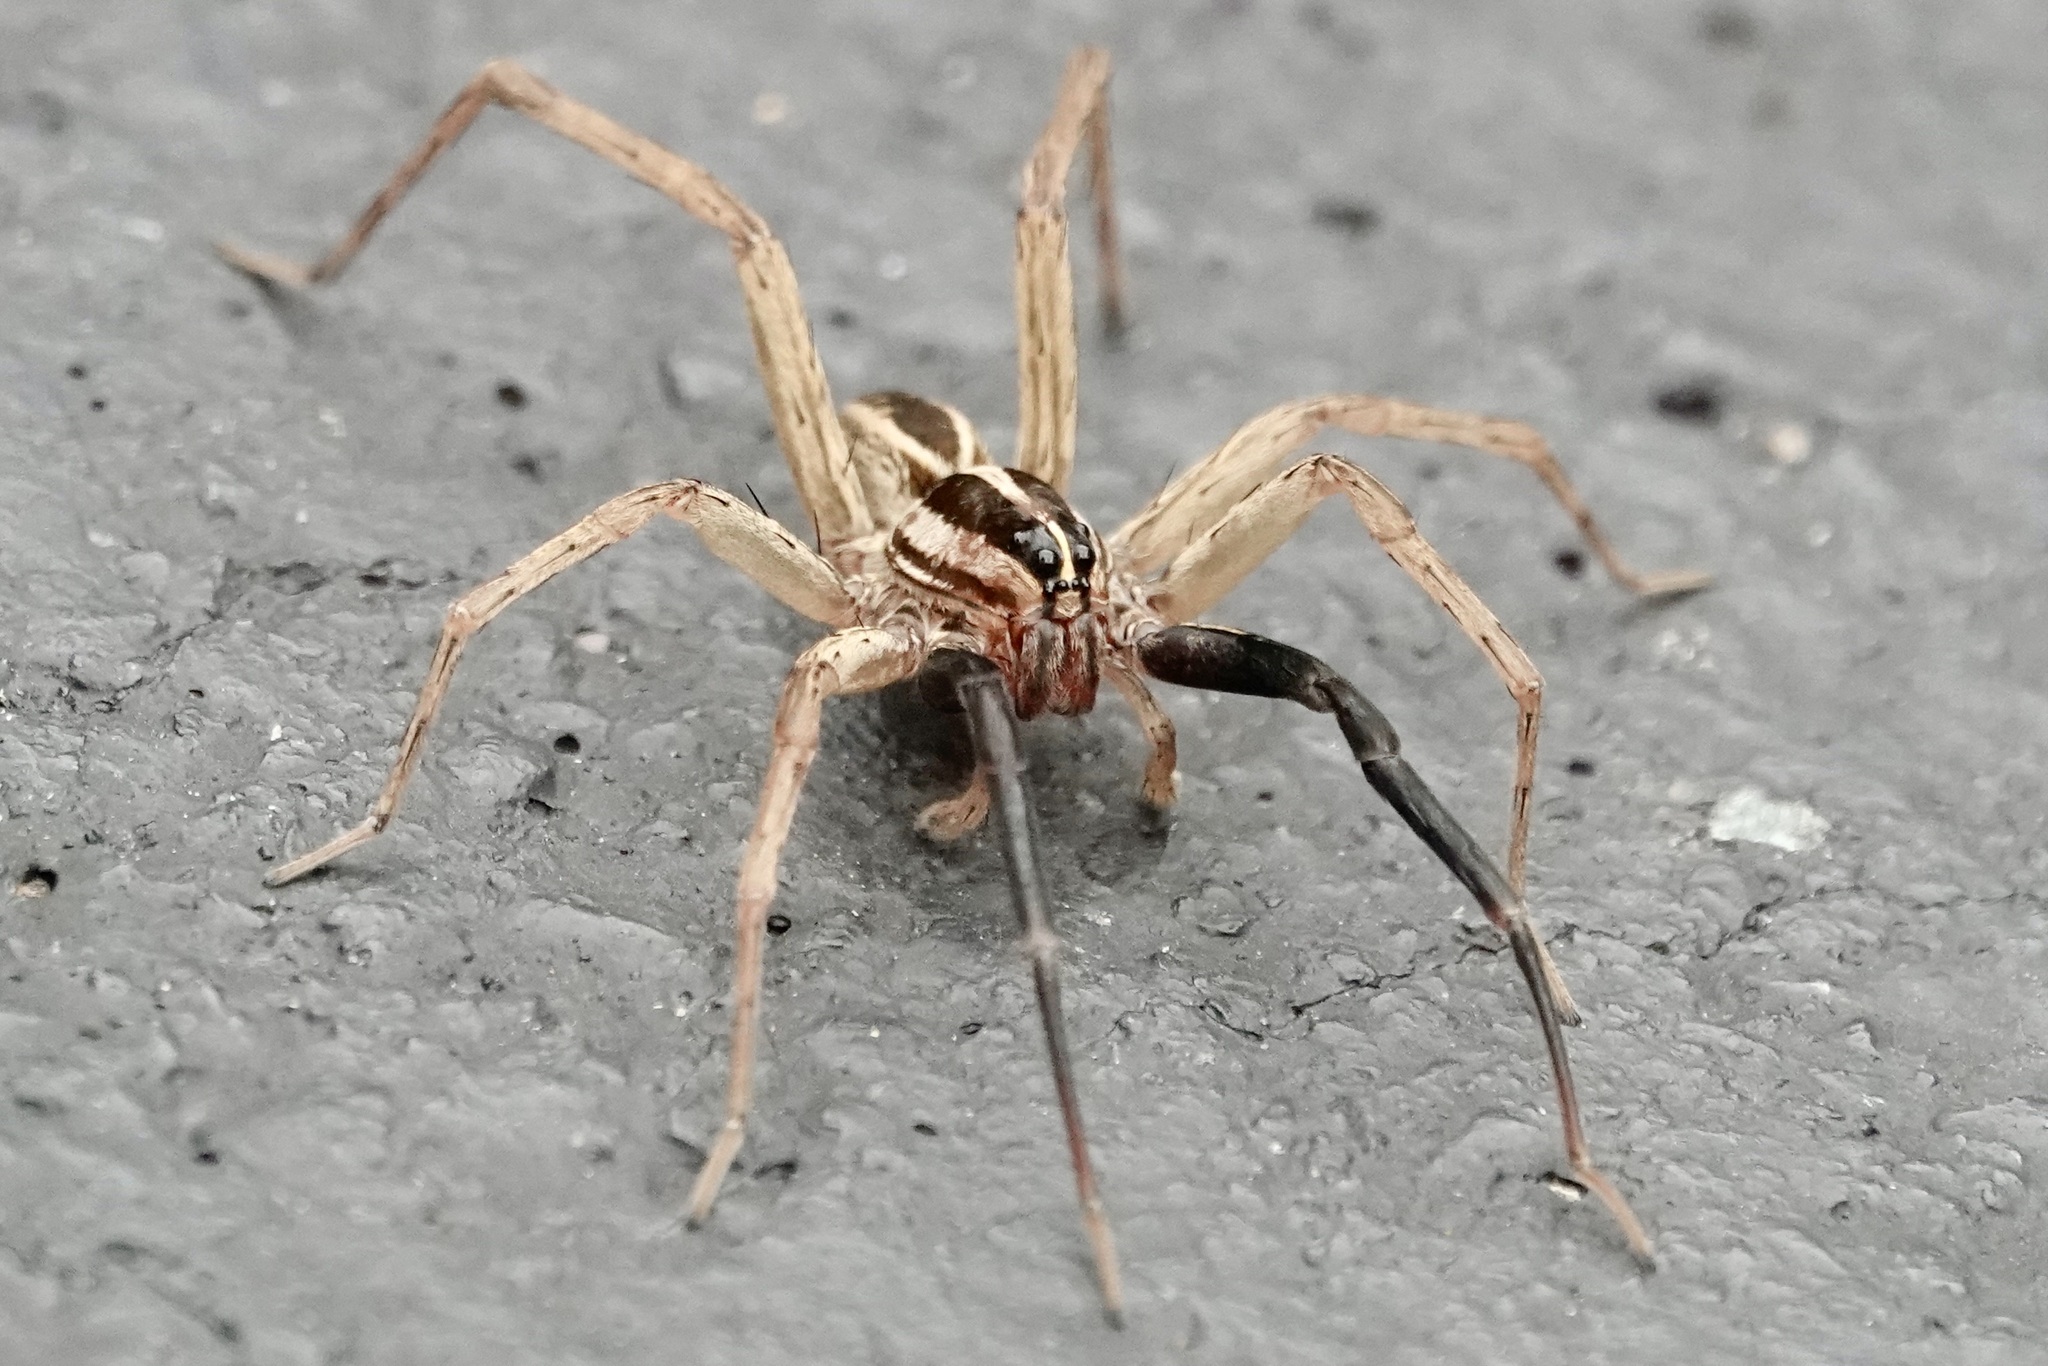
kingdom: Animalia
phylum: Arthropoda
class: Arachnida
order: Araneae
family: Lycosidae
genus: Rabidosa
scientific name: Rabidosa rabida
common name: Rabid wolf spider
